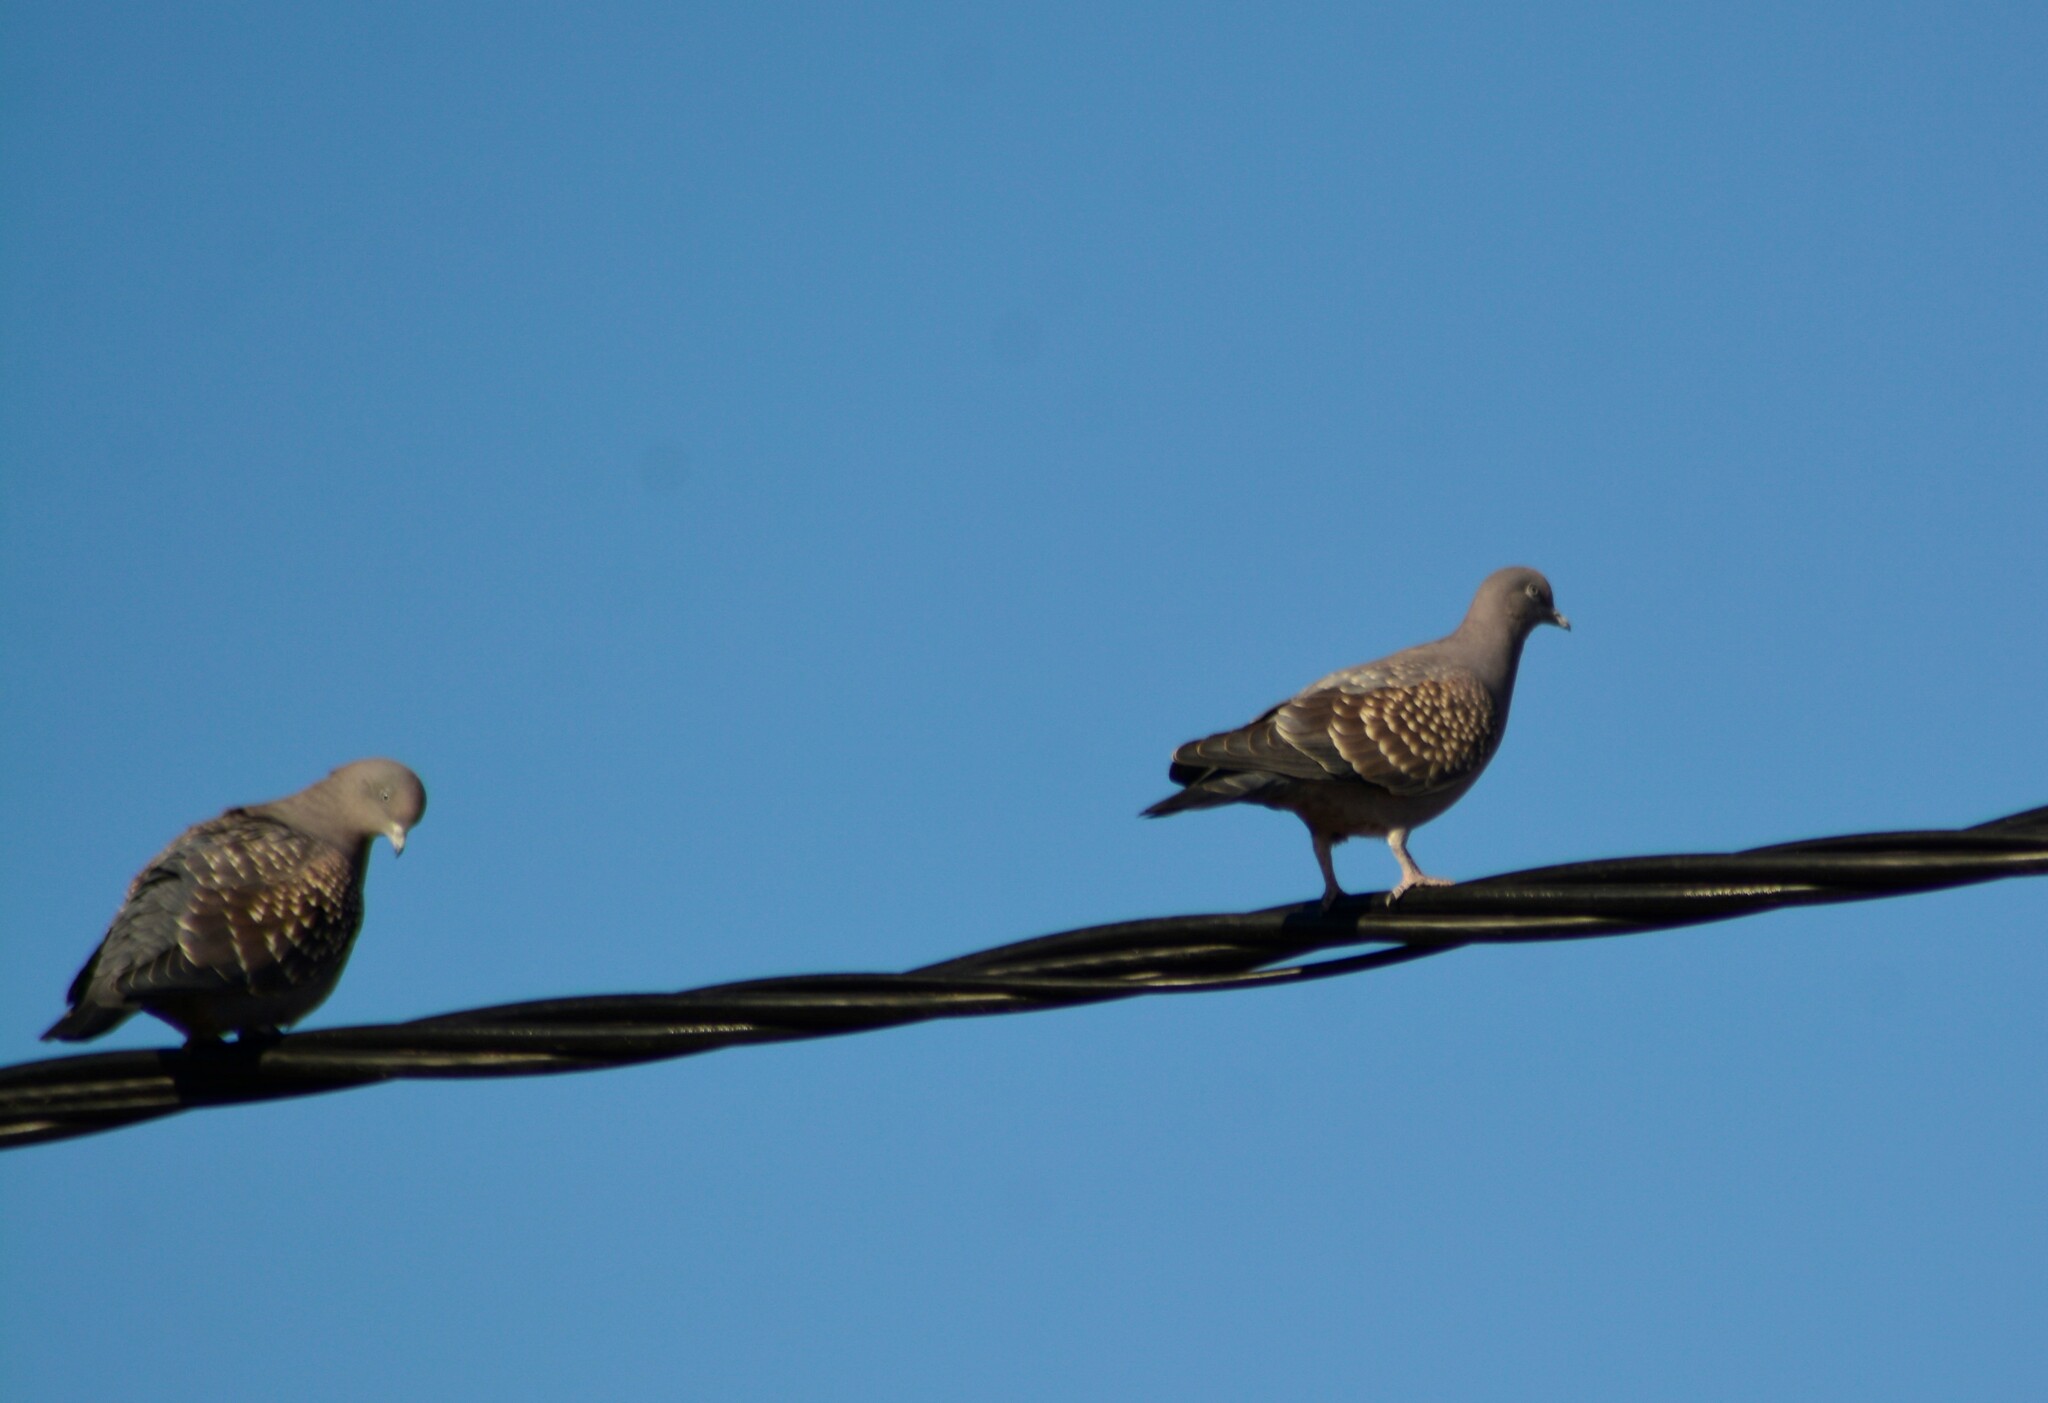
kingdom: Animalia
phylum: Chordata
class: Aves
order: Columbiformes
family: Columbidae
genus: Patagioenas
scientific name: Patagioenas maculosa
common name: Spot-winged pigeon
